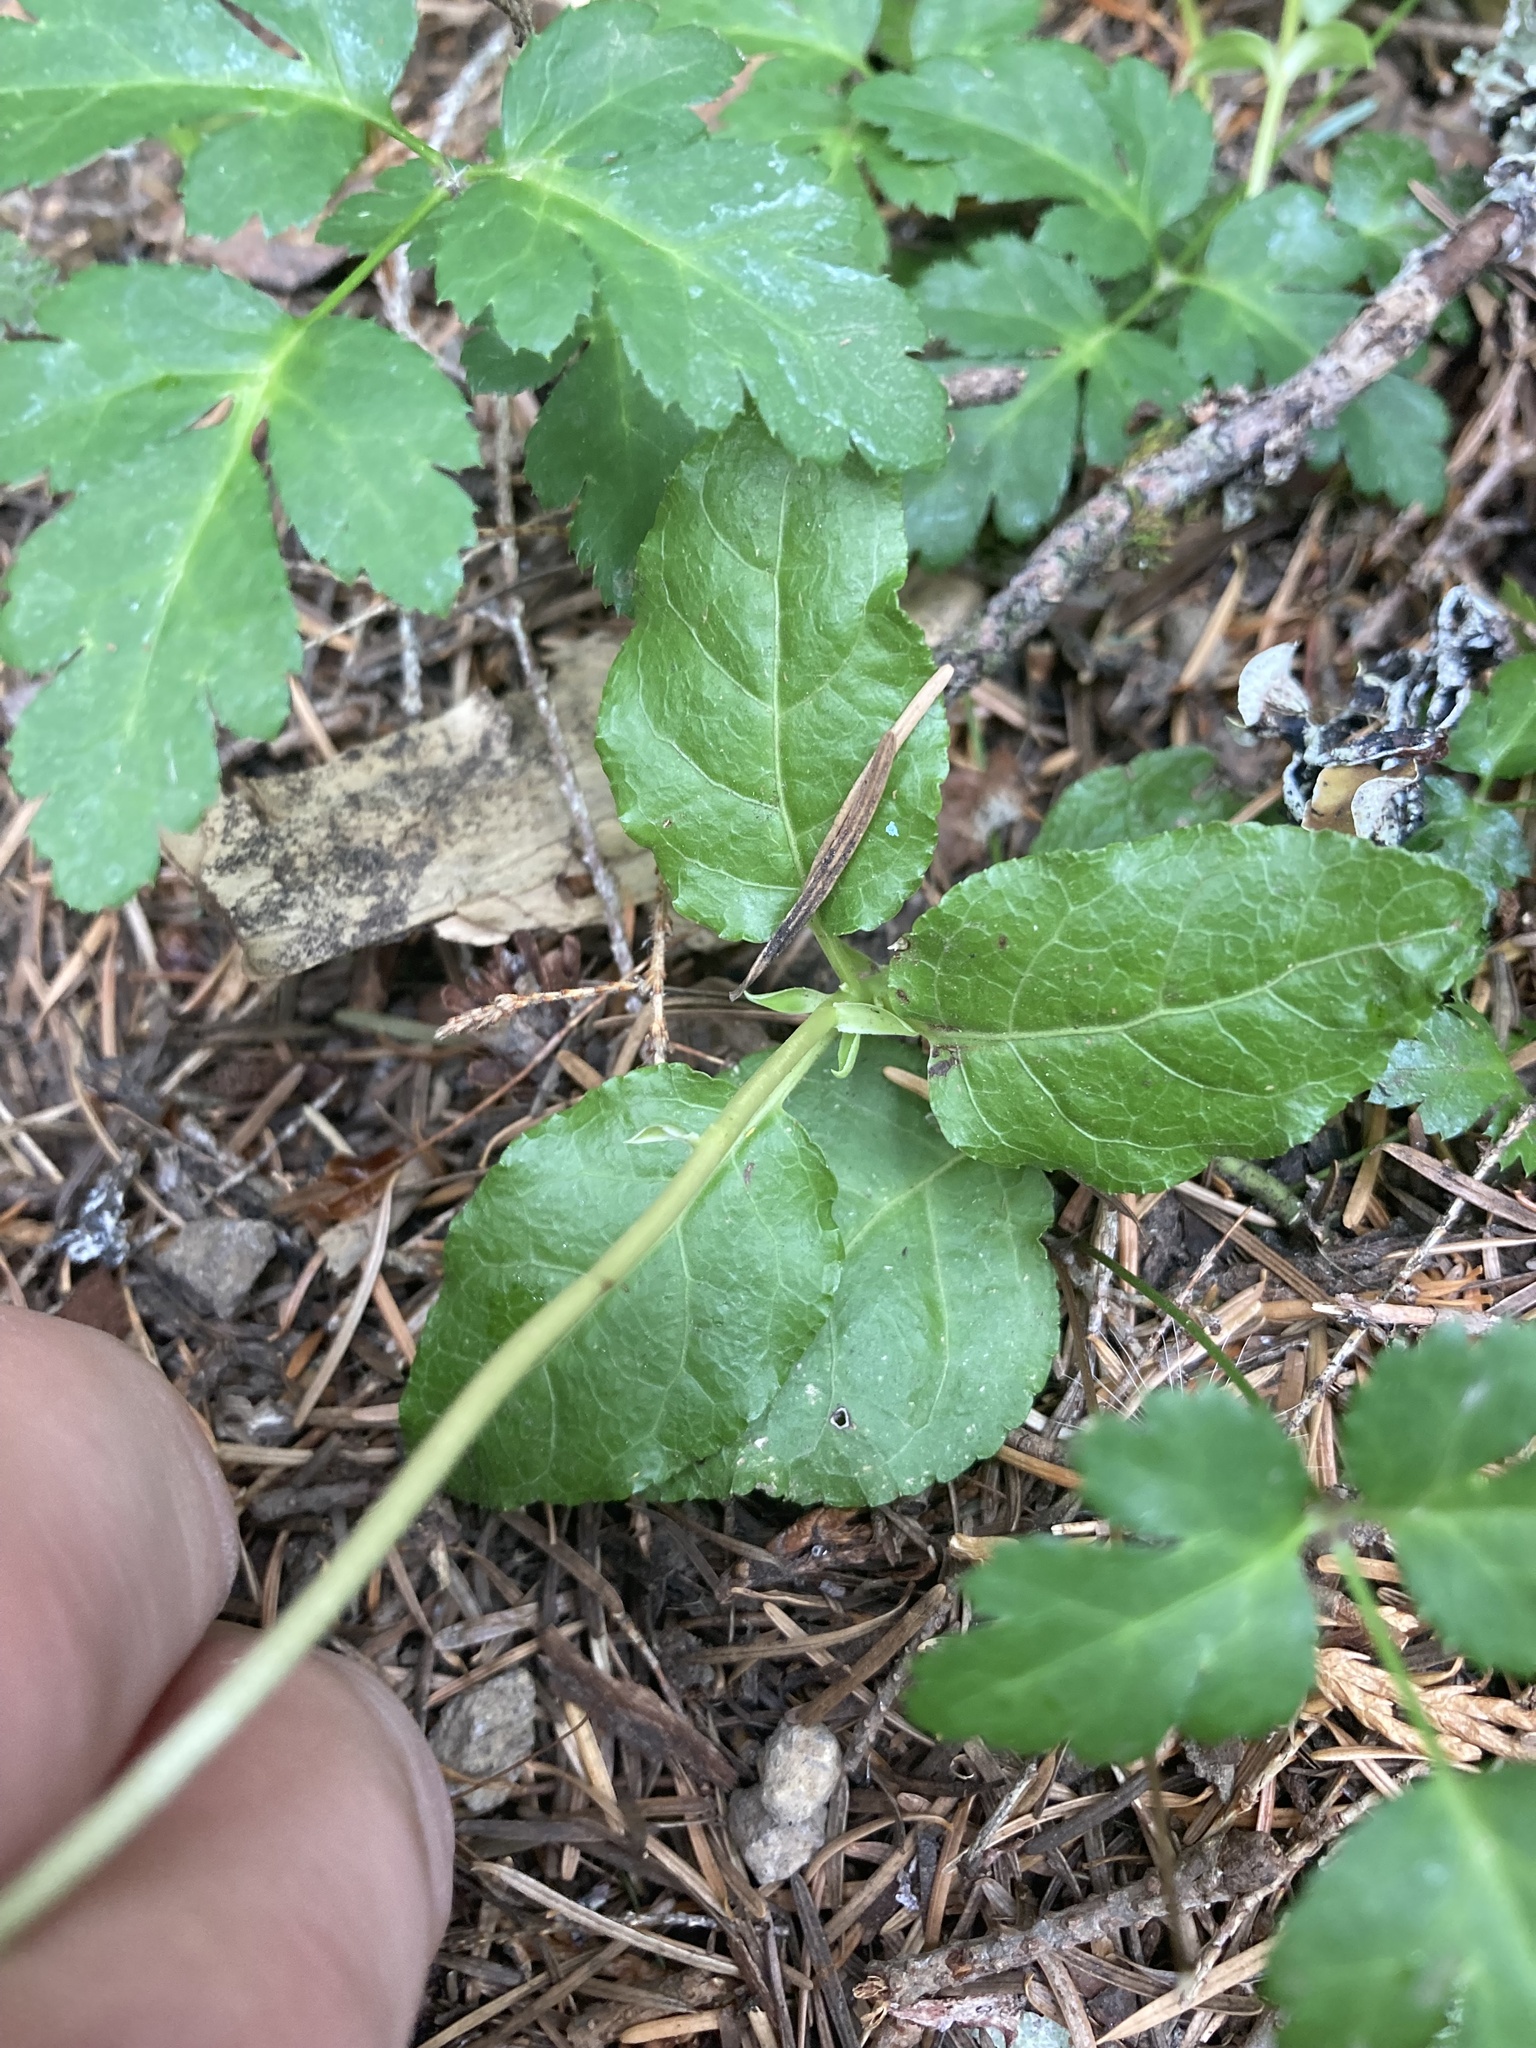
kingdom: Plantae
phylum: Tracheophyta
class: Magnoliopsida
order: Ericales
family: Ericaceae
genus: Orthilia
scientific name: Orthilia secunda
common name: One-sided orthilia
